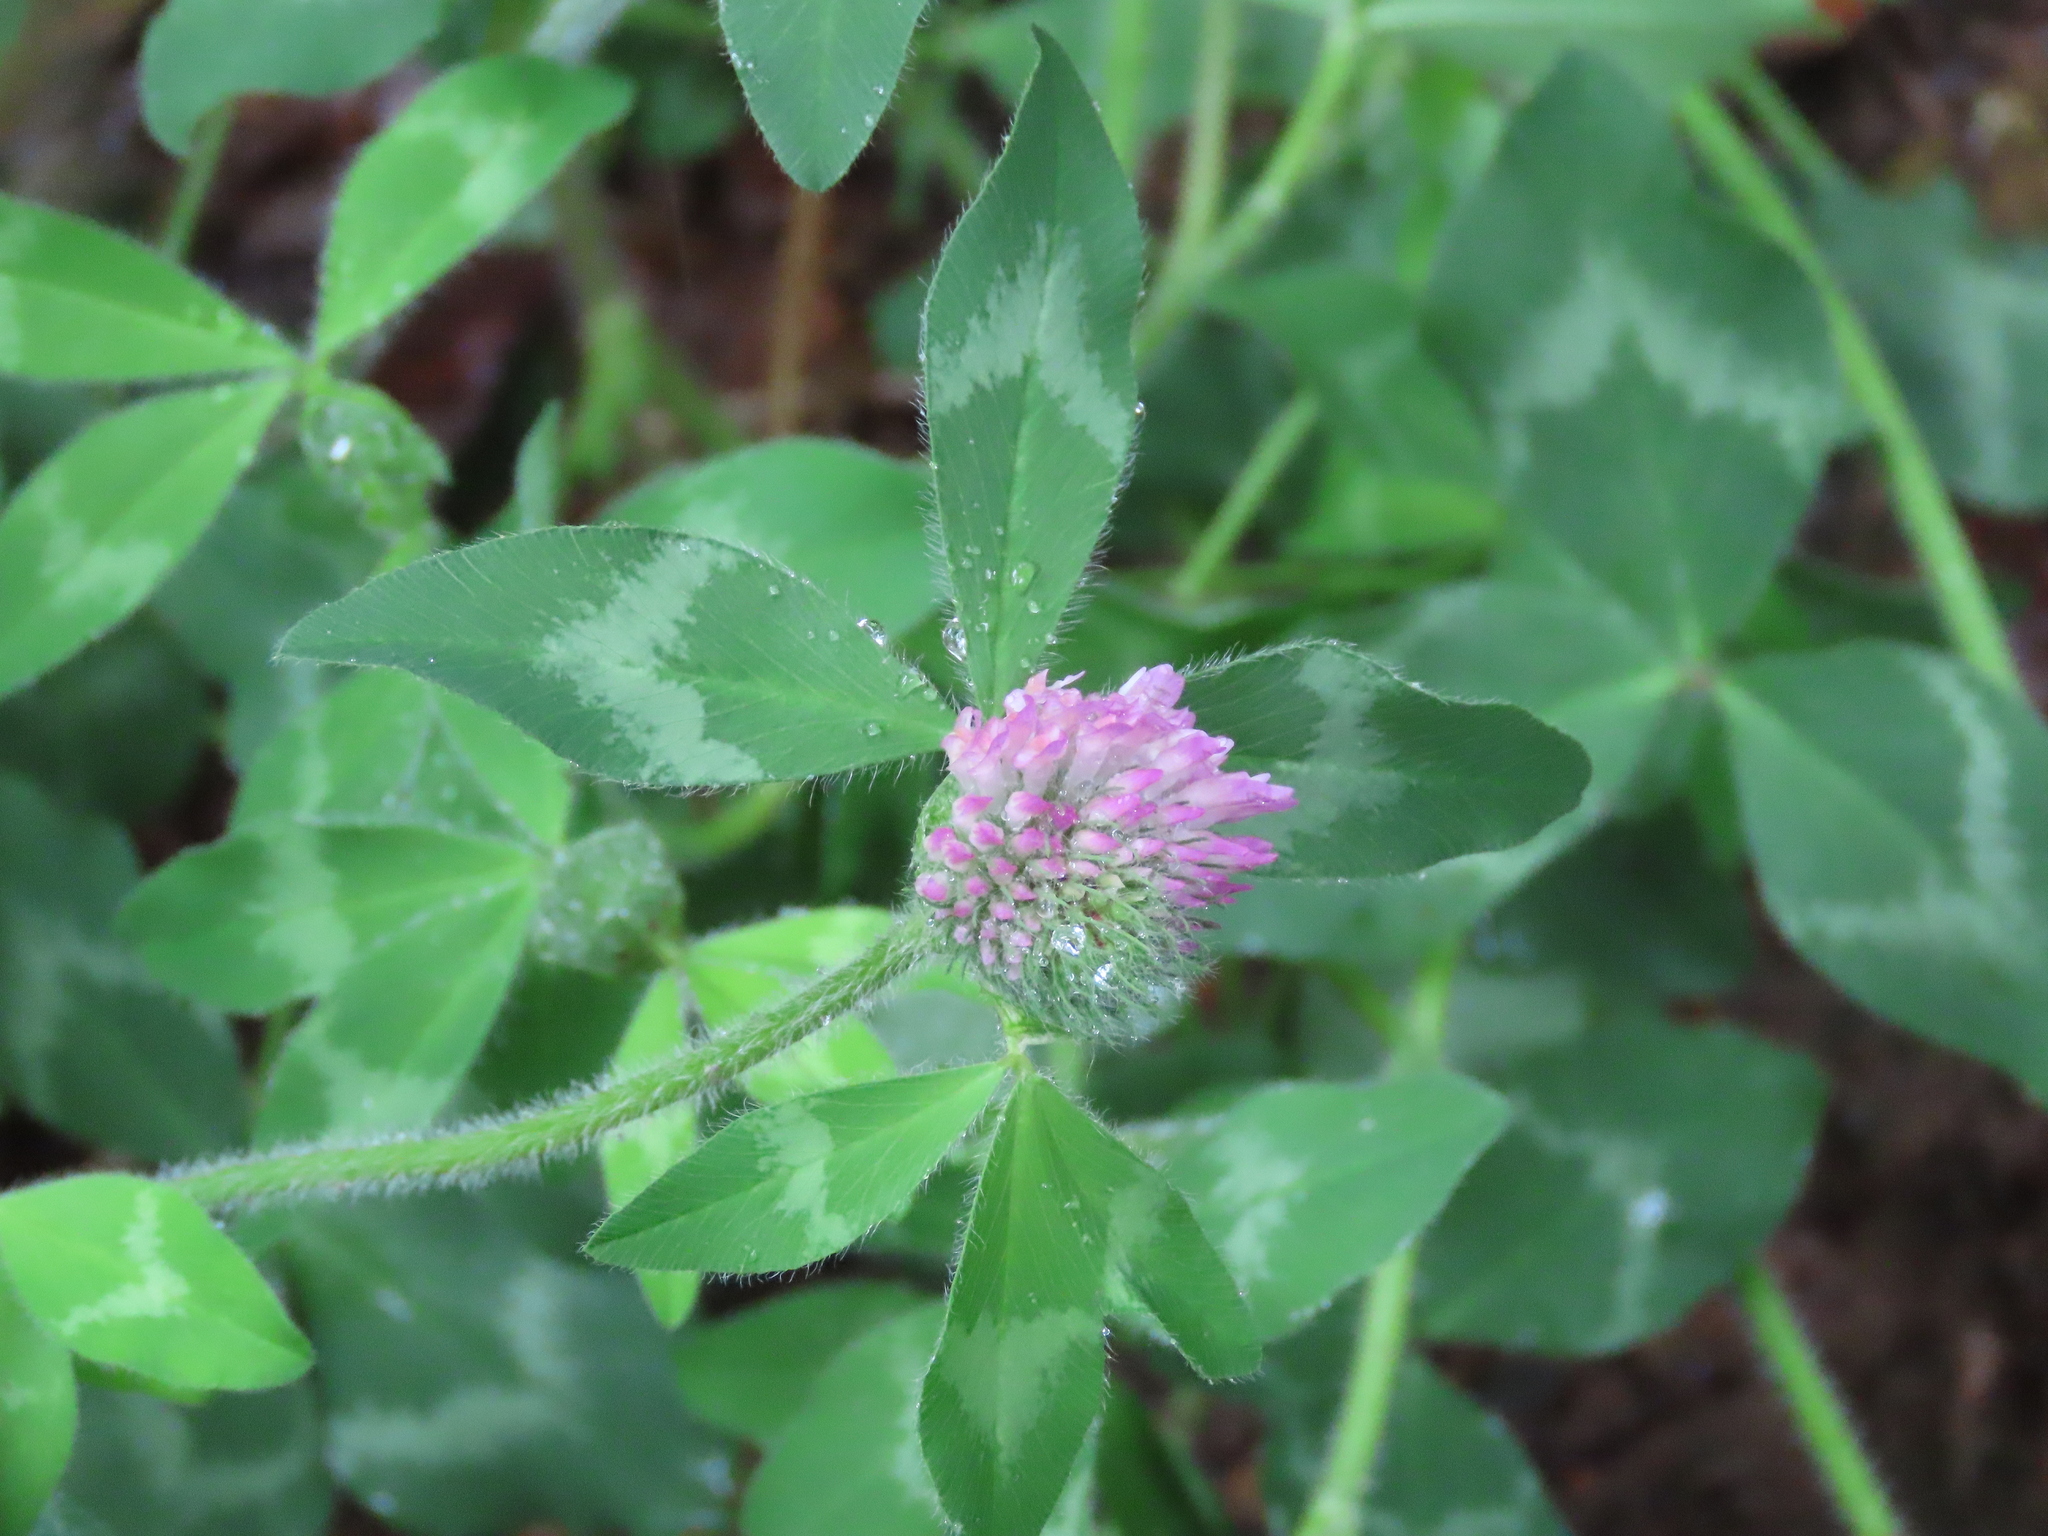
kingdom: Plantae
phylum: Tracheophyta
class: Magnoliopsida
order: Fabales
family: Fabaceae
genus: Trifolium
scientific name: Trifolium pratense
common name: Red clover
